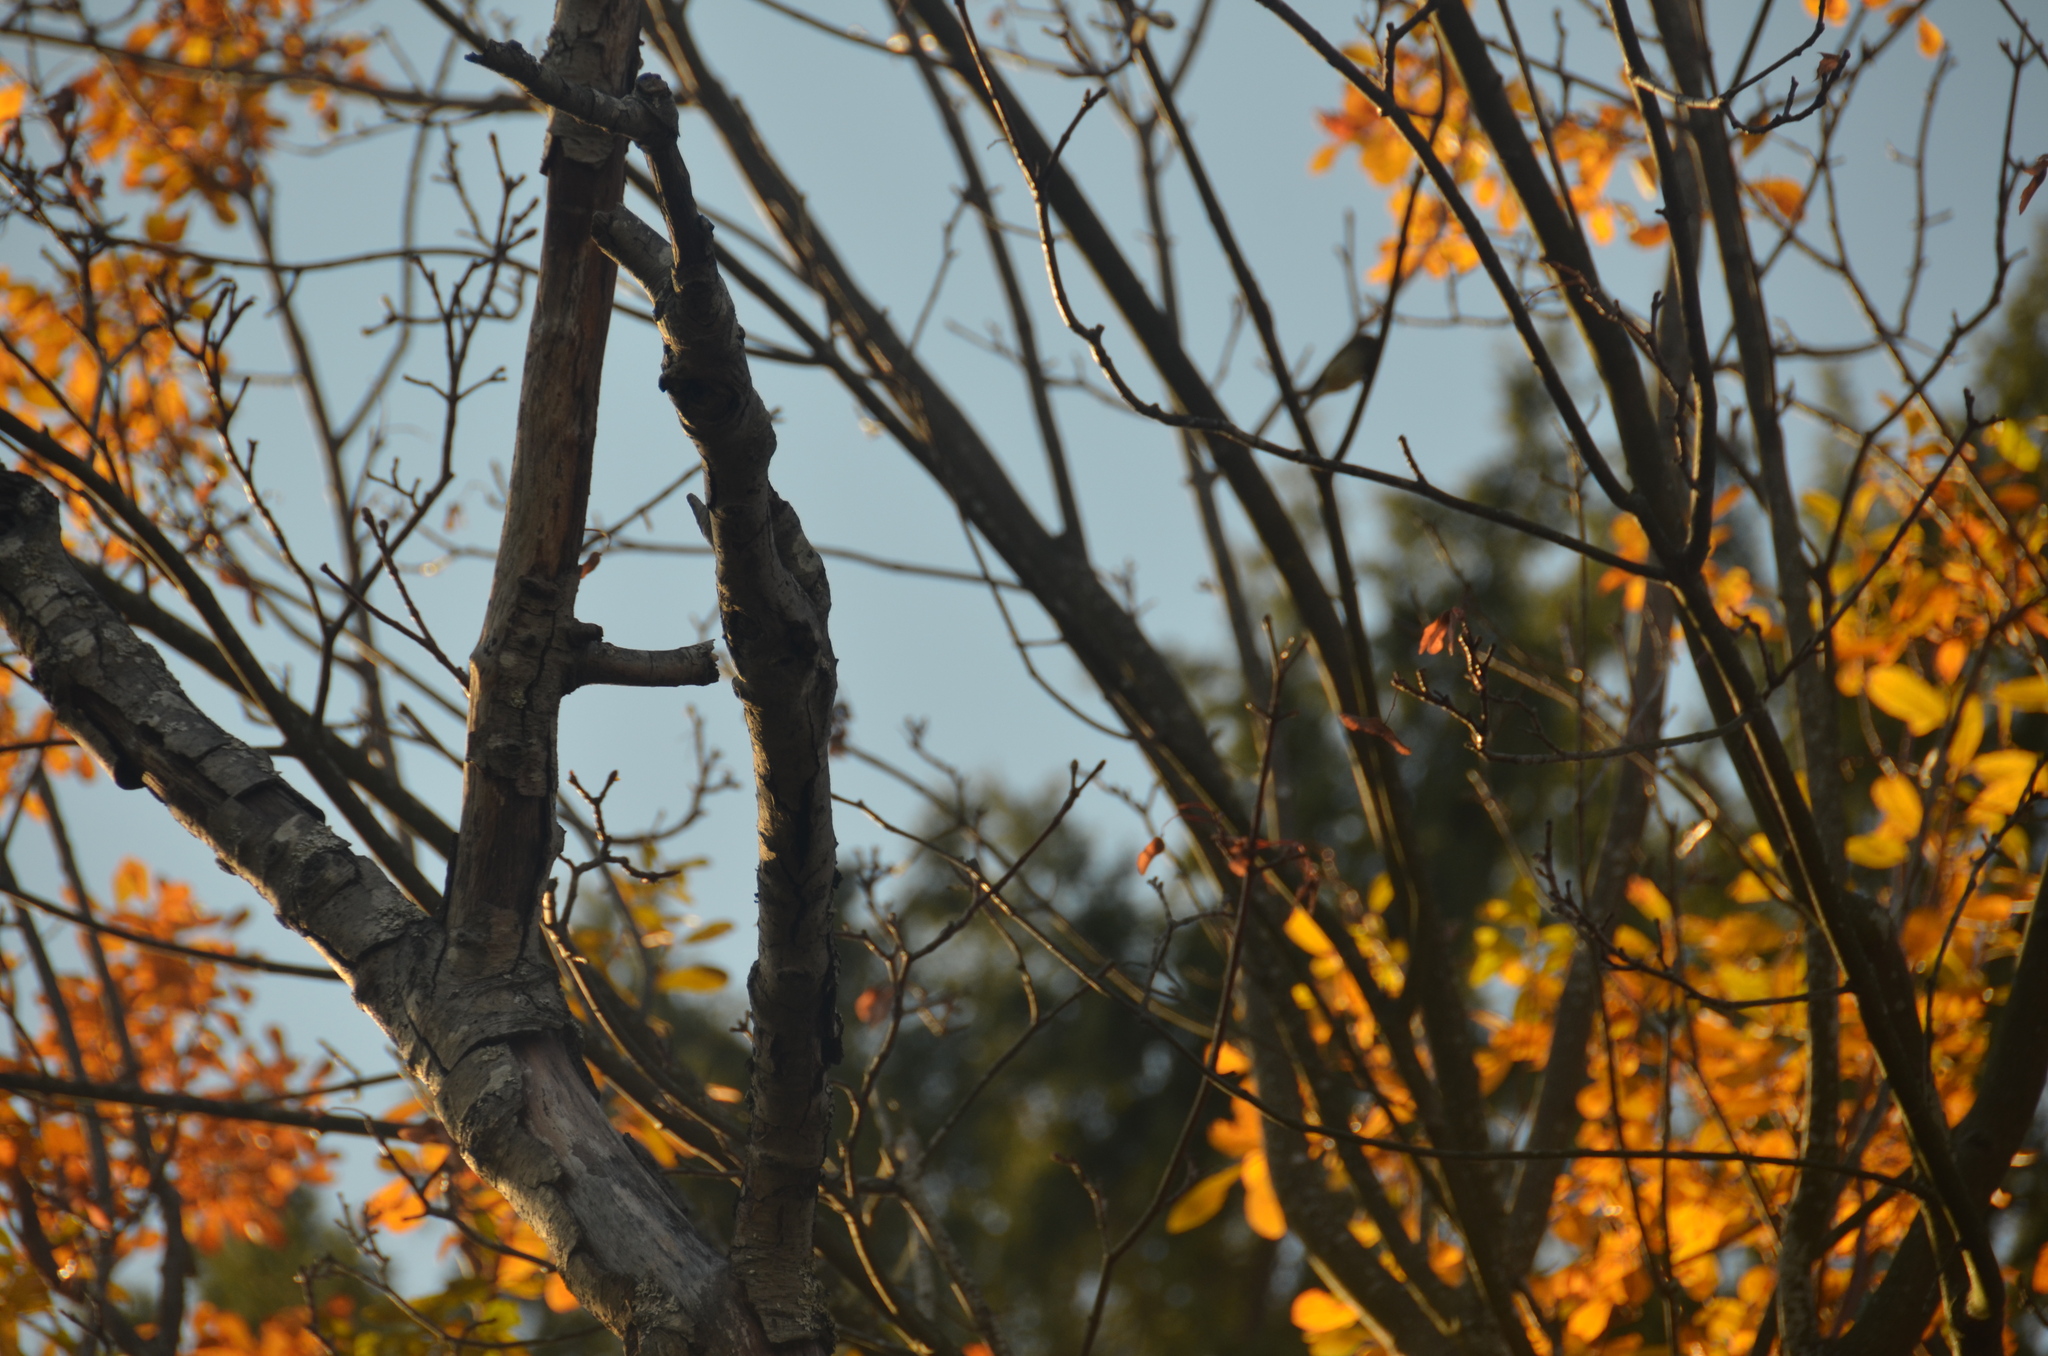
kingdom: Animalia
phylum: Chordata
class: Aves
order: Passeriformes
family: Regulidae
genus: Regulus
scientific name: Regulus calendula
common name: Ruby-crowned kinglet
